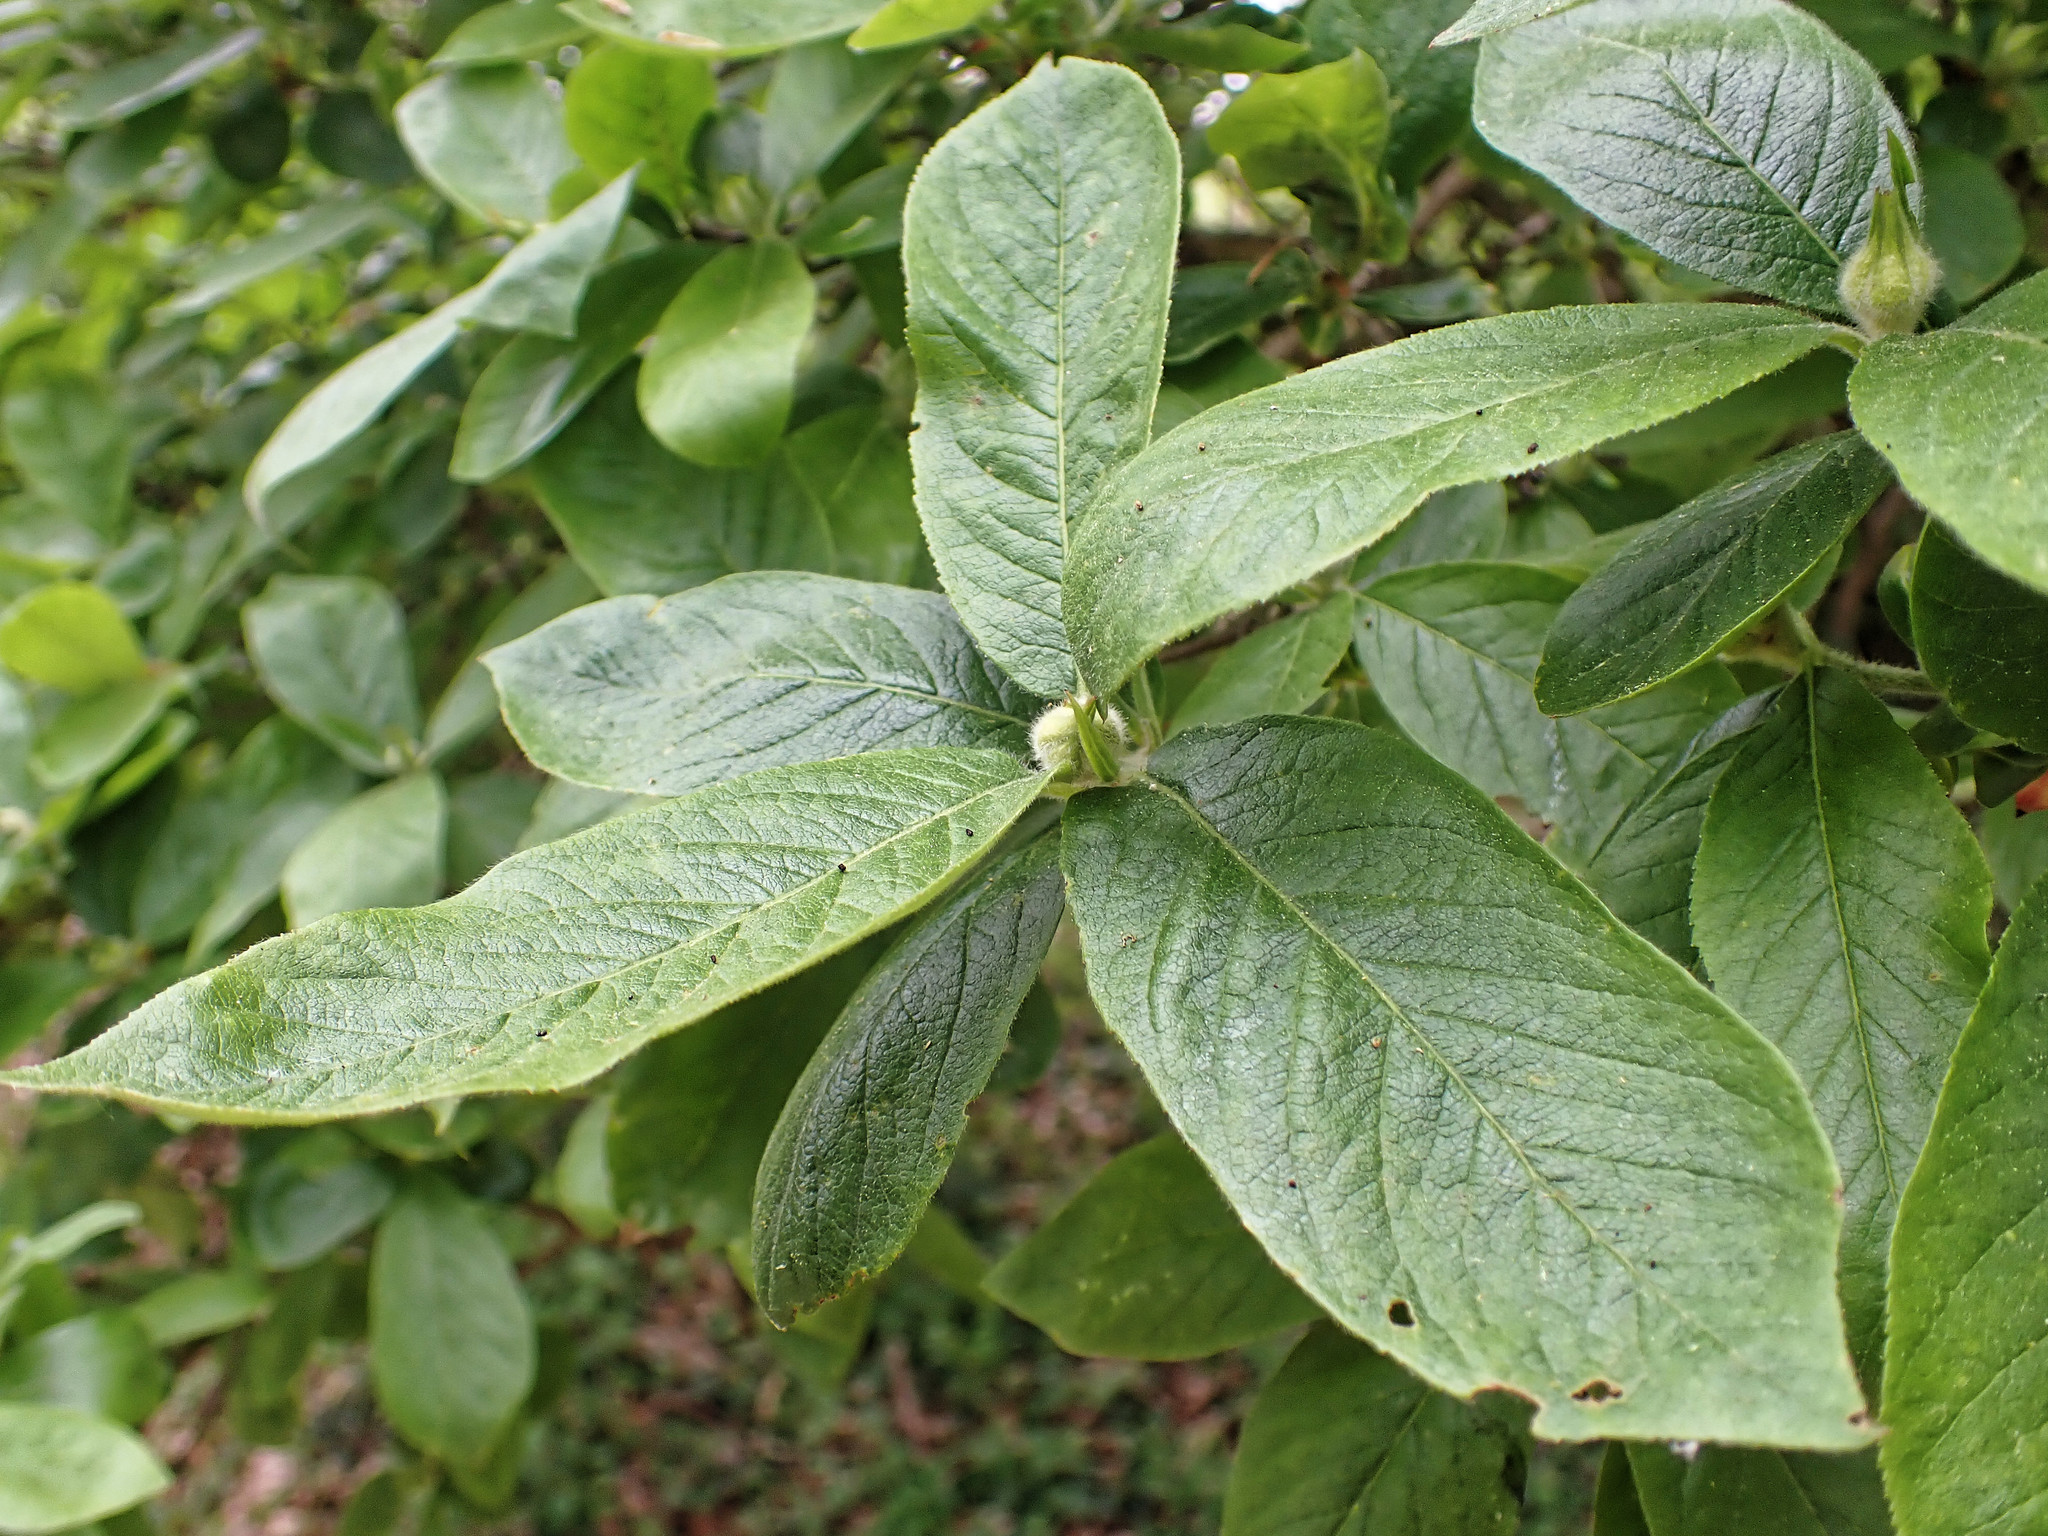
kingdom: Plantae
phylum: Tracheophyta
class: Magnoliopsida
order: Rosales
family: Rosaceae
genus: Mespilus
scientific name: Mespilus germanica
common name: Medlar
